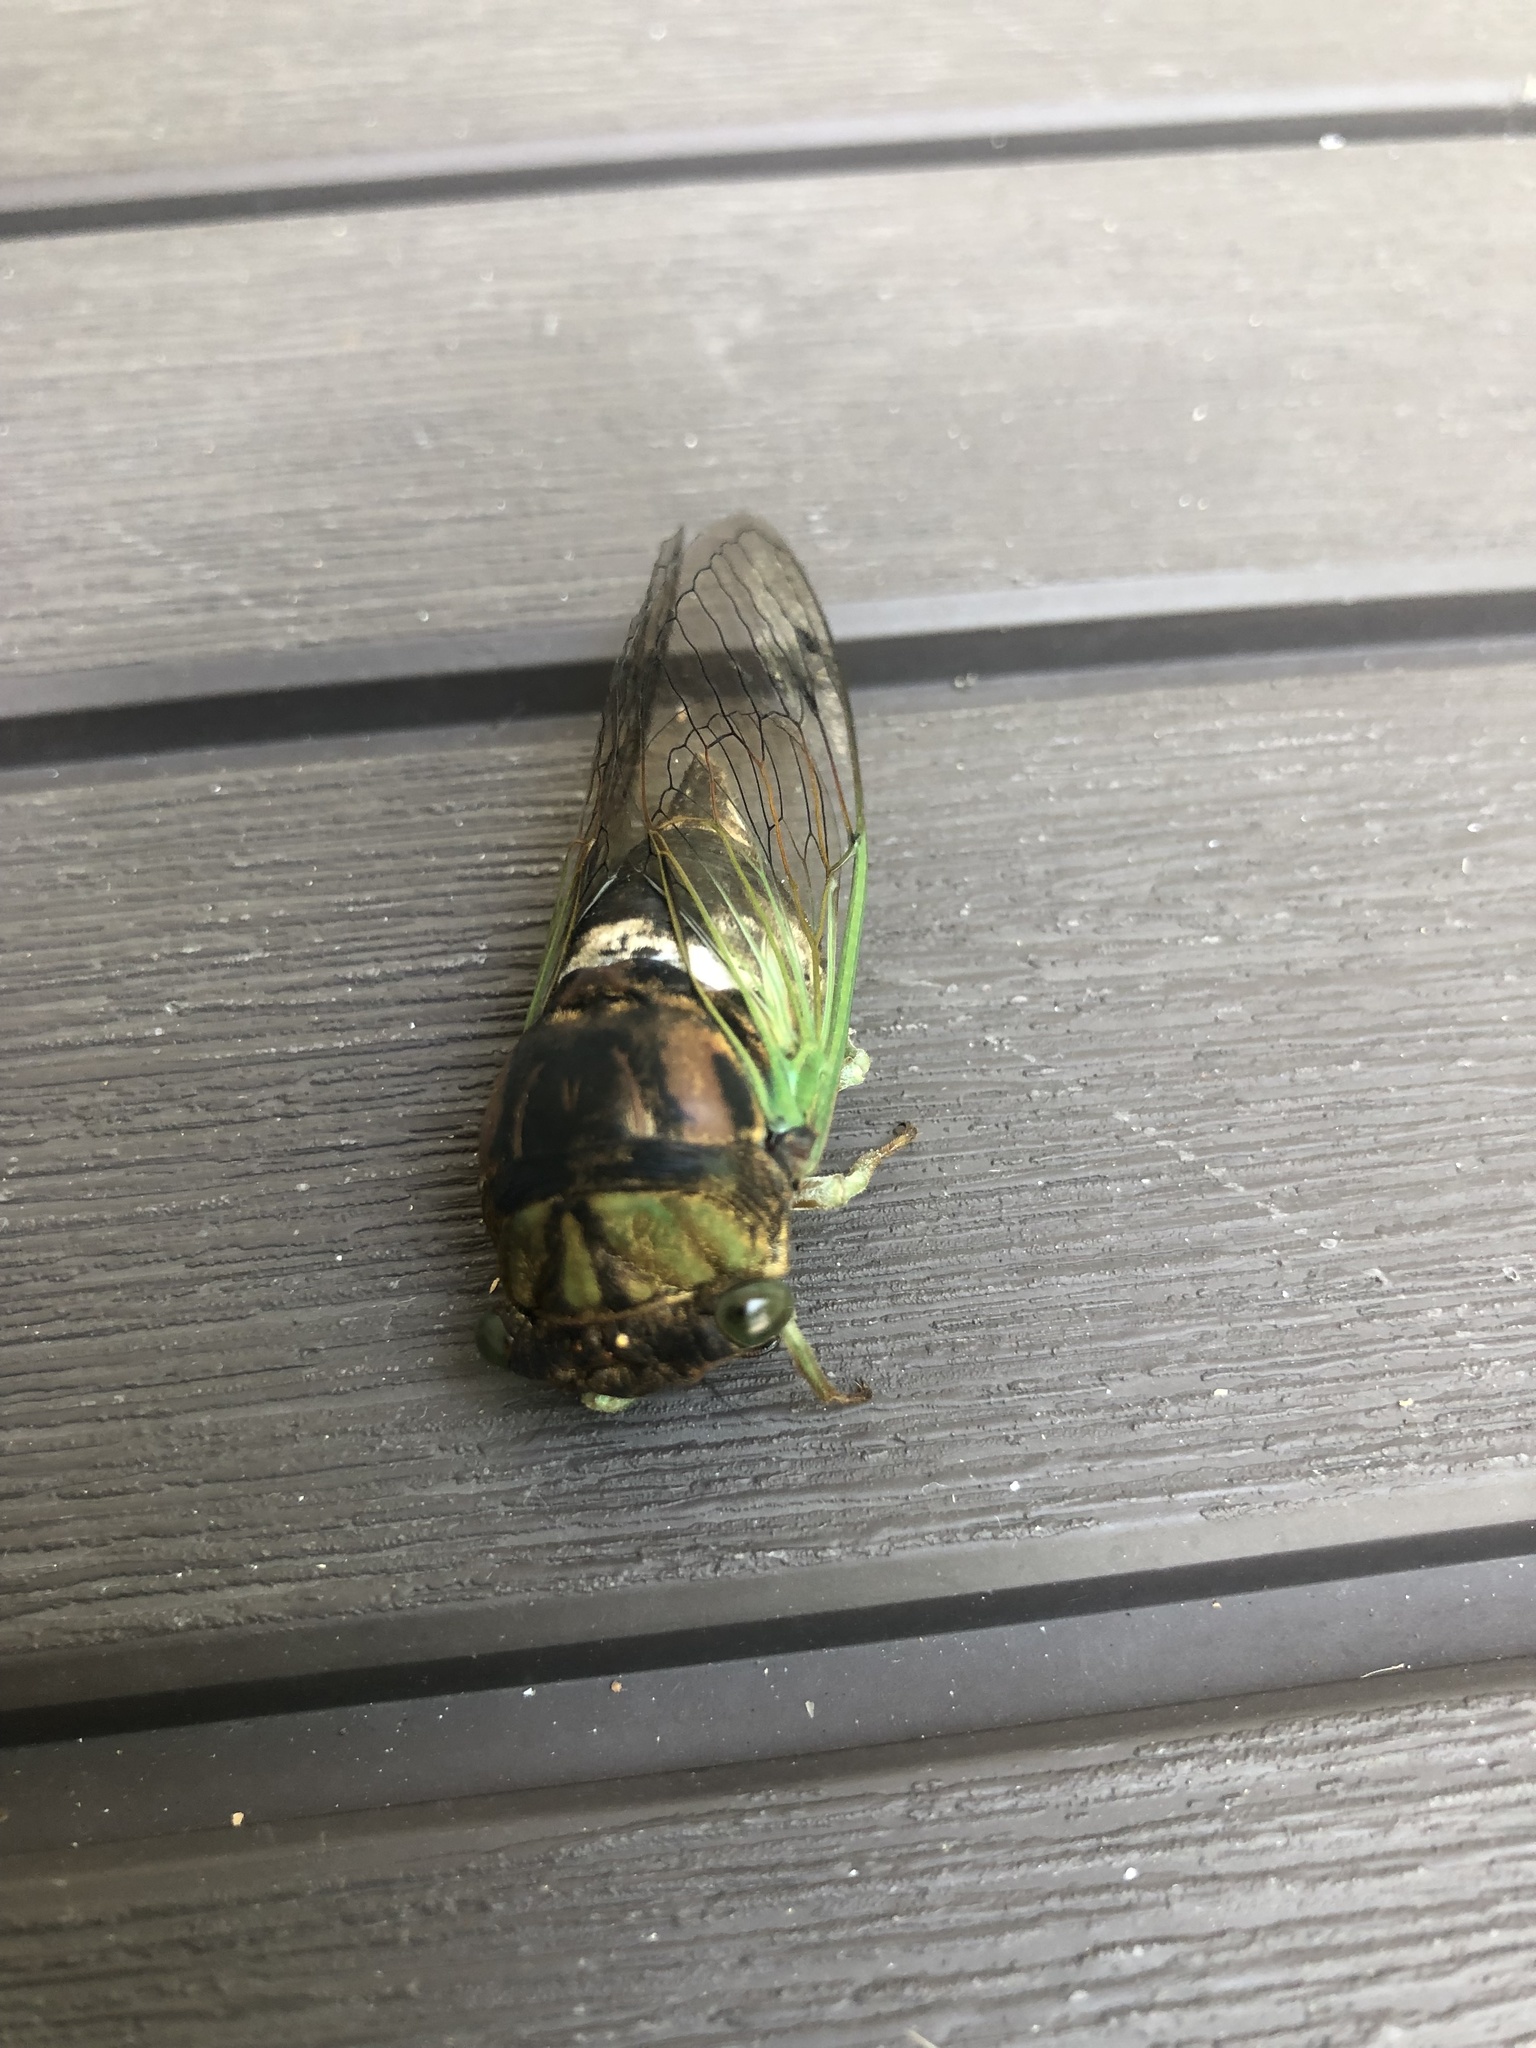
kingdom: Animalia
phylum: Arthropoda
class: Insecta
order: Hemiptera
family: Cicadidae
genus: Neotibicen
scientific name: Neotibicen tibicen
